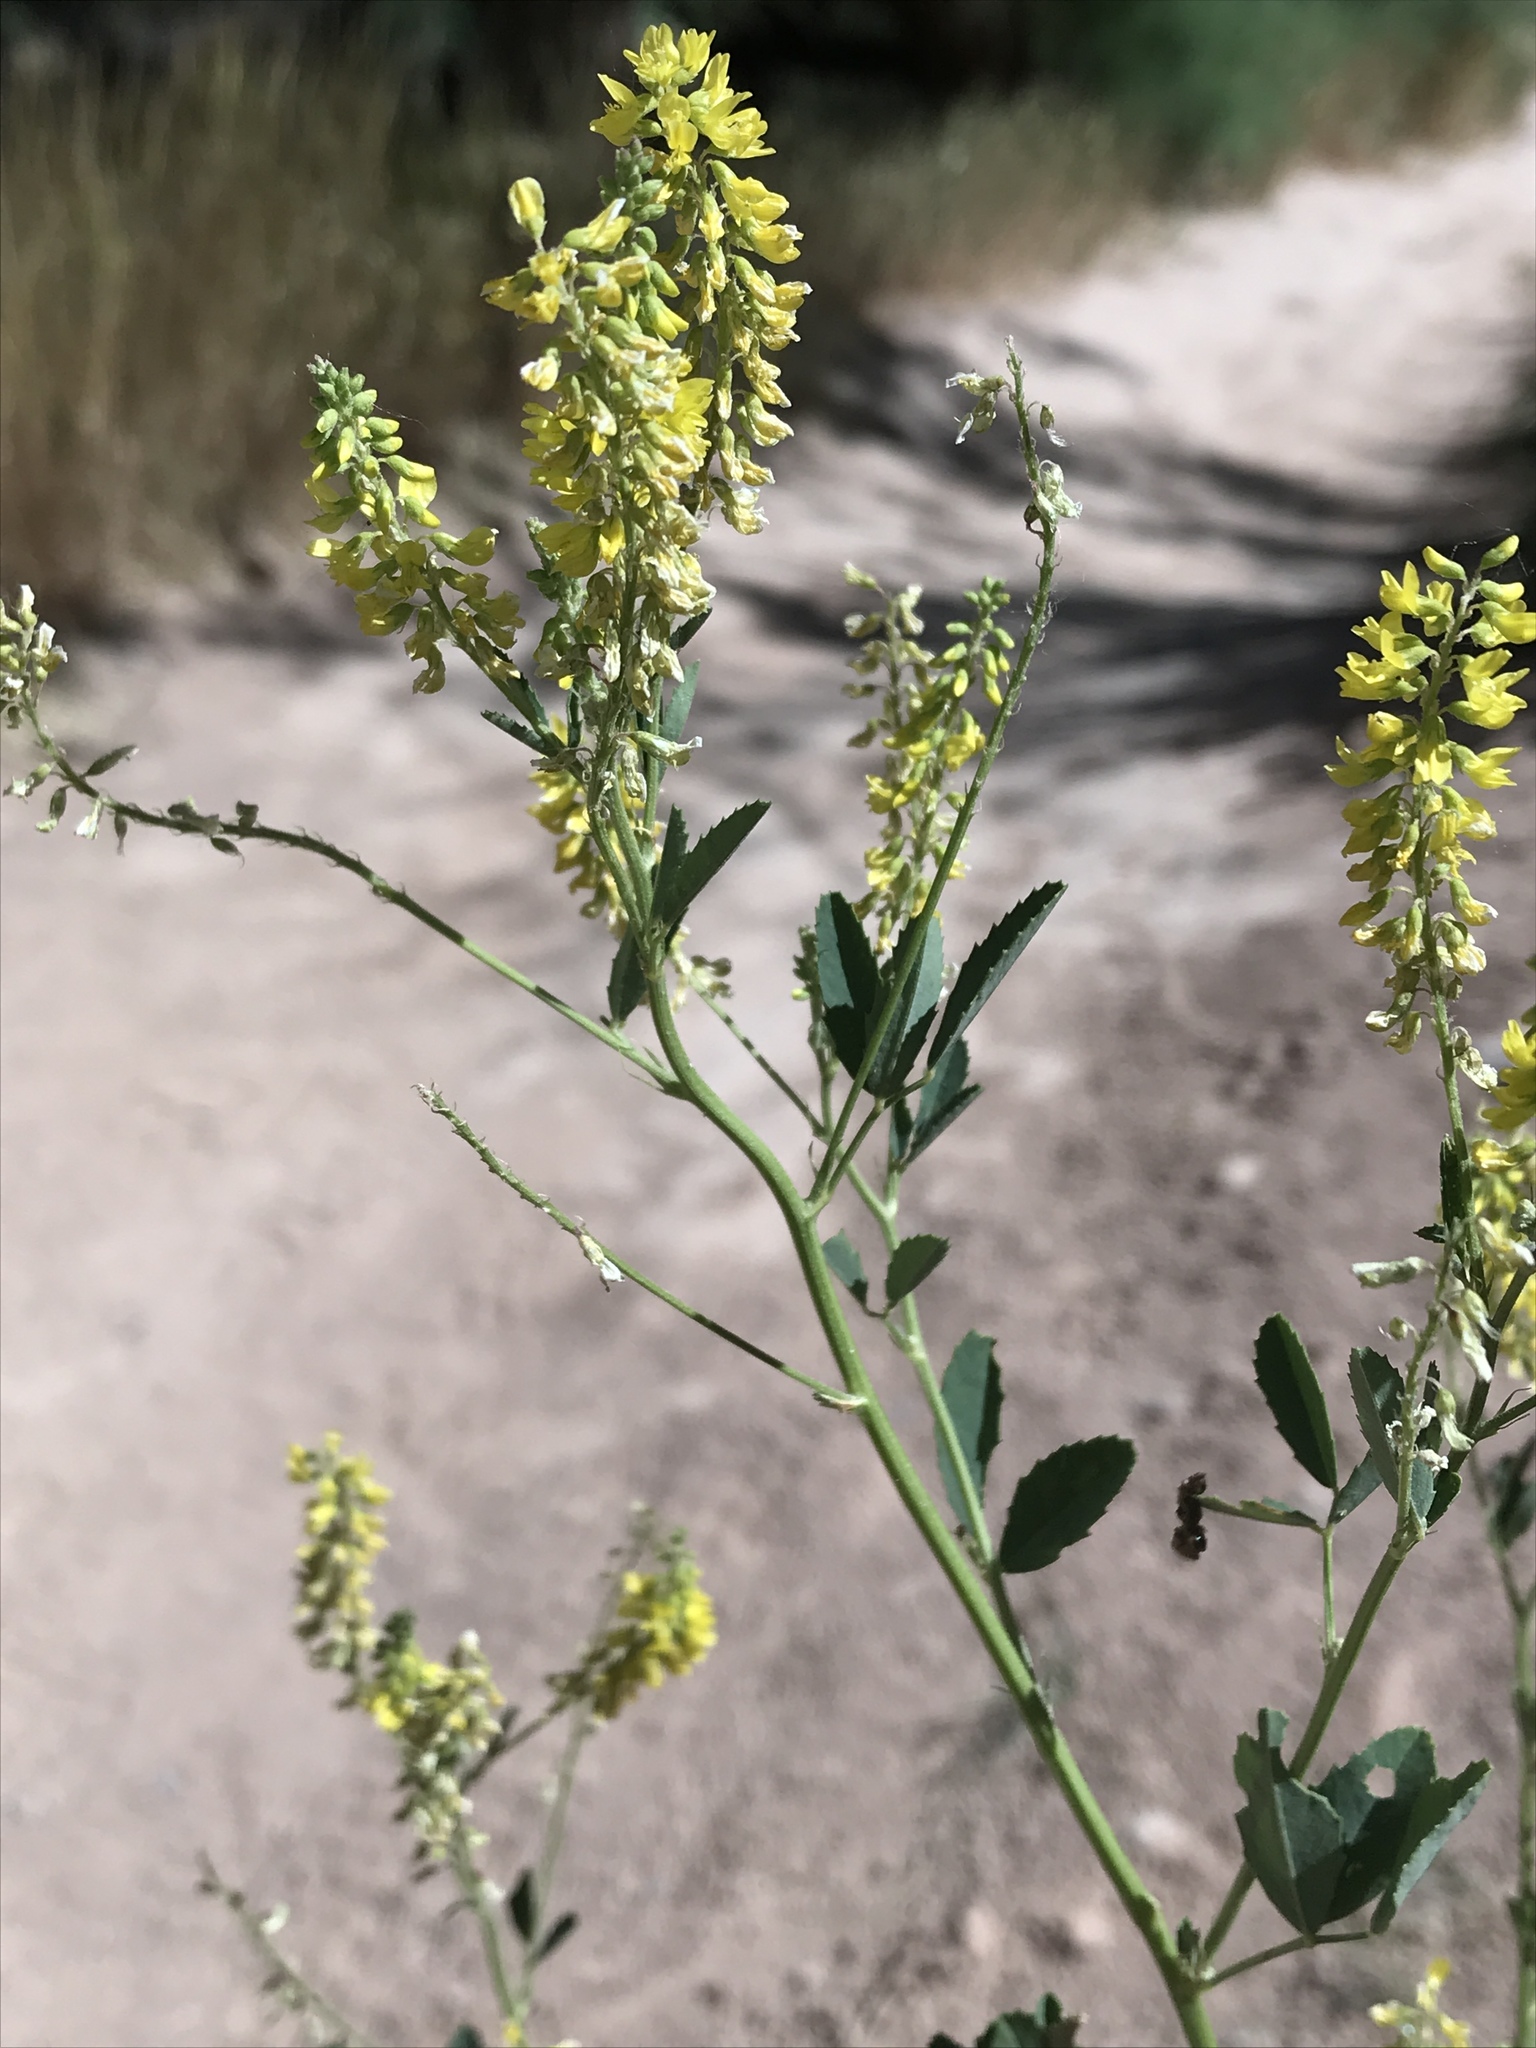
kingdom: Plantae
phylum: Tracheophyta
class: Magnoliopsida
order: Fabales
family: Fabaceae
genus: Melilotus
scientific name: Melilotus officinalis
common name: Sweetclover
